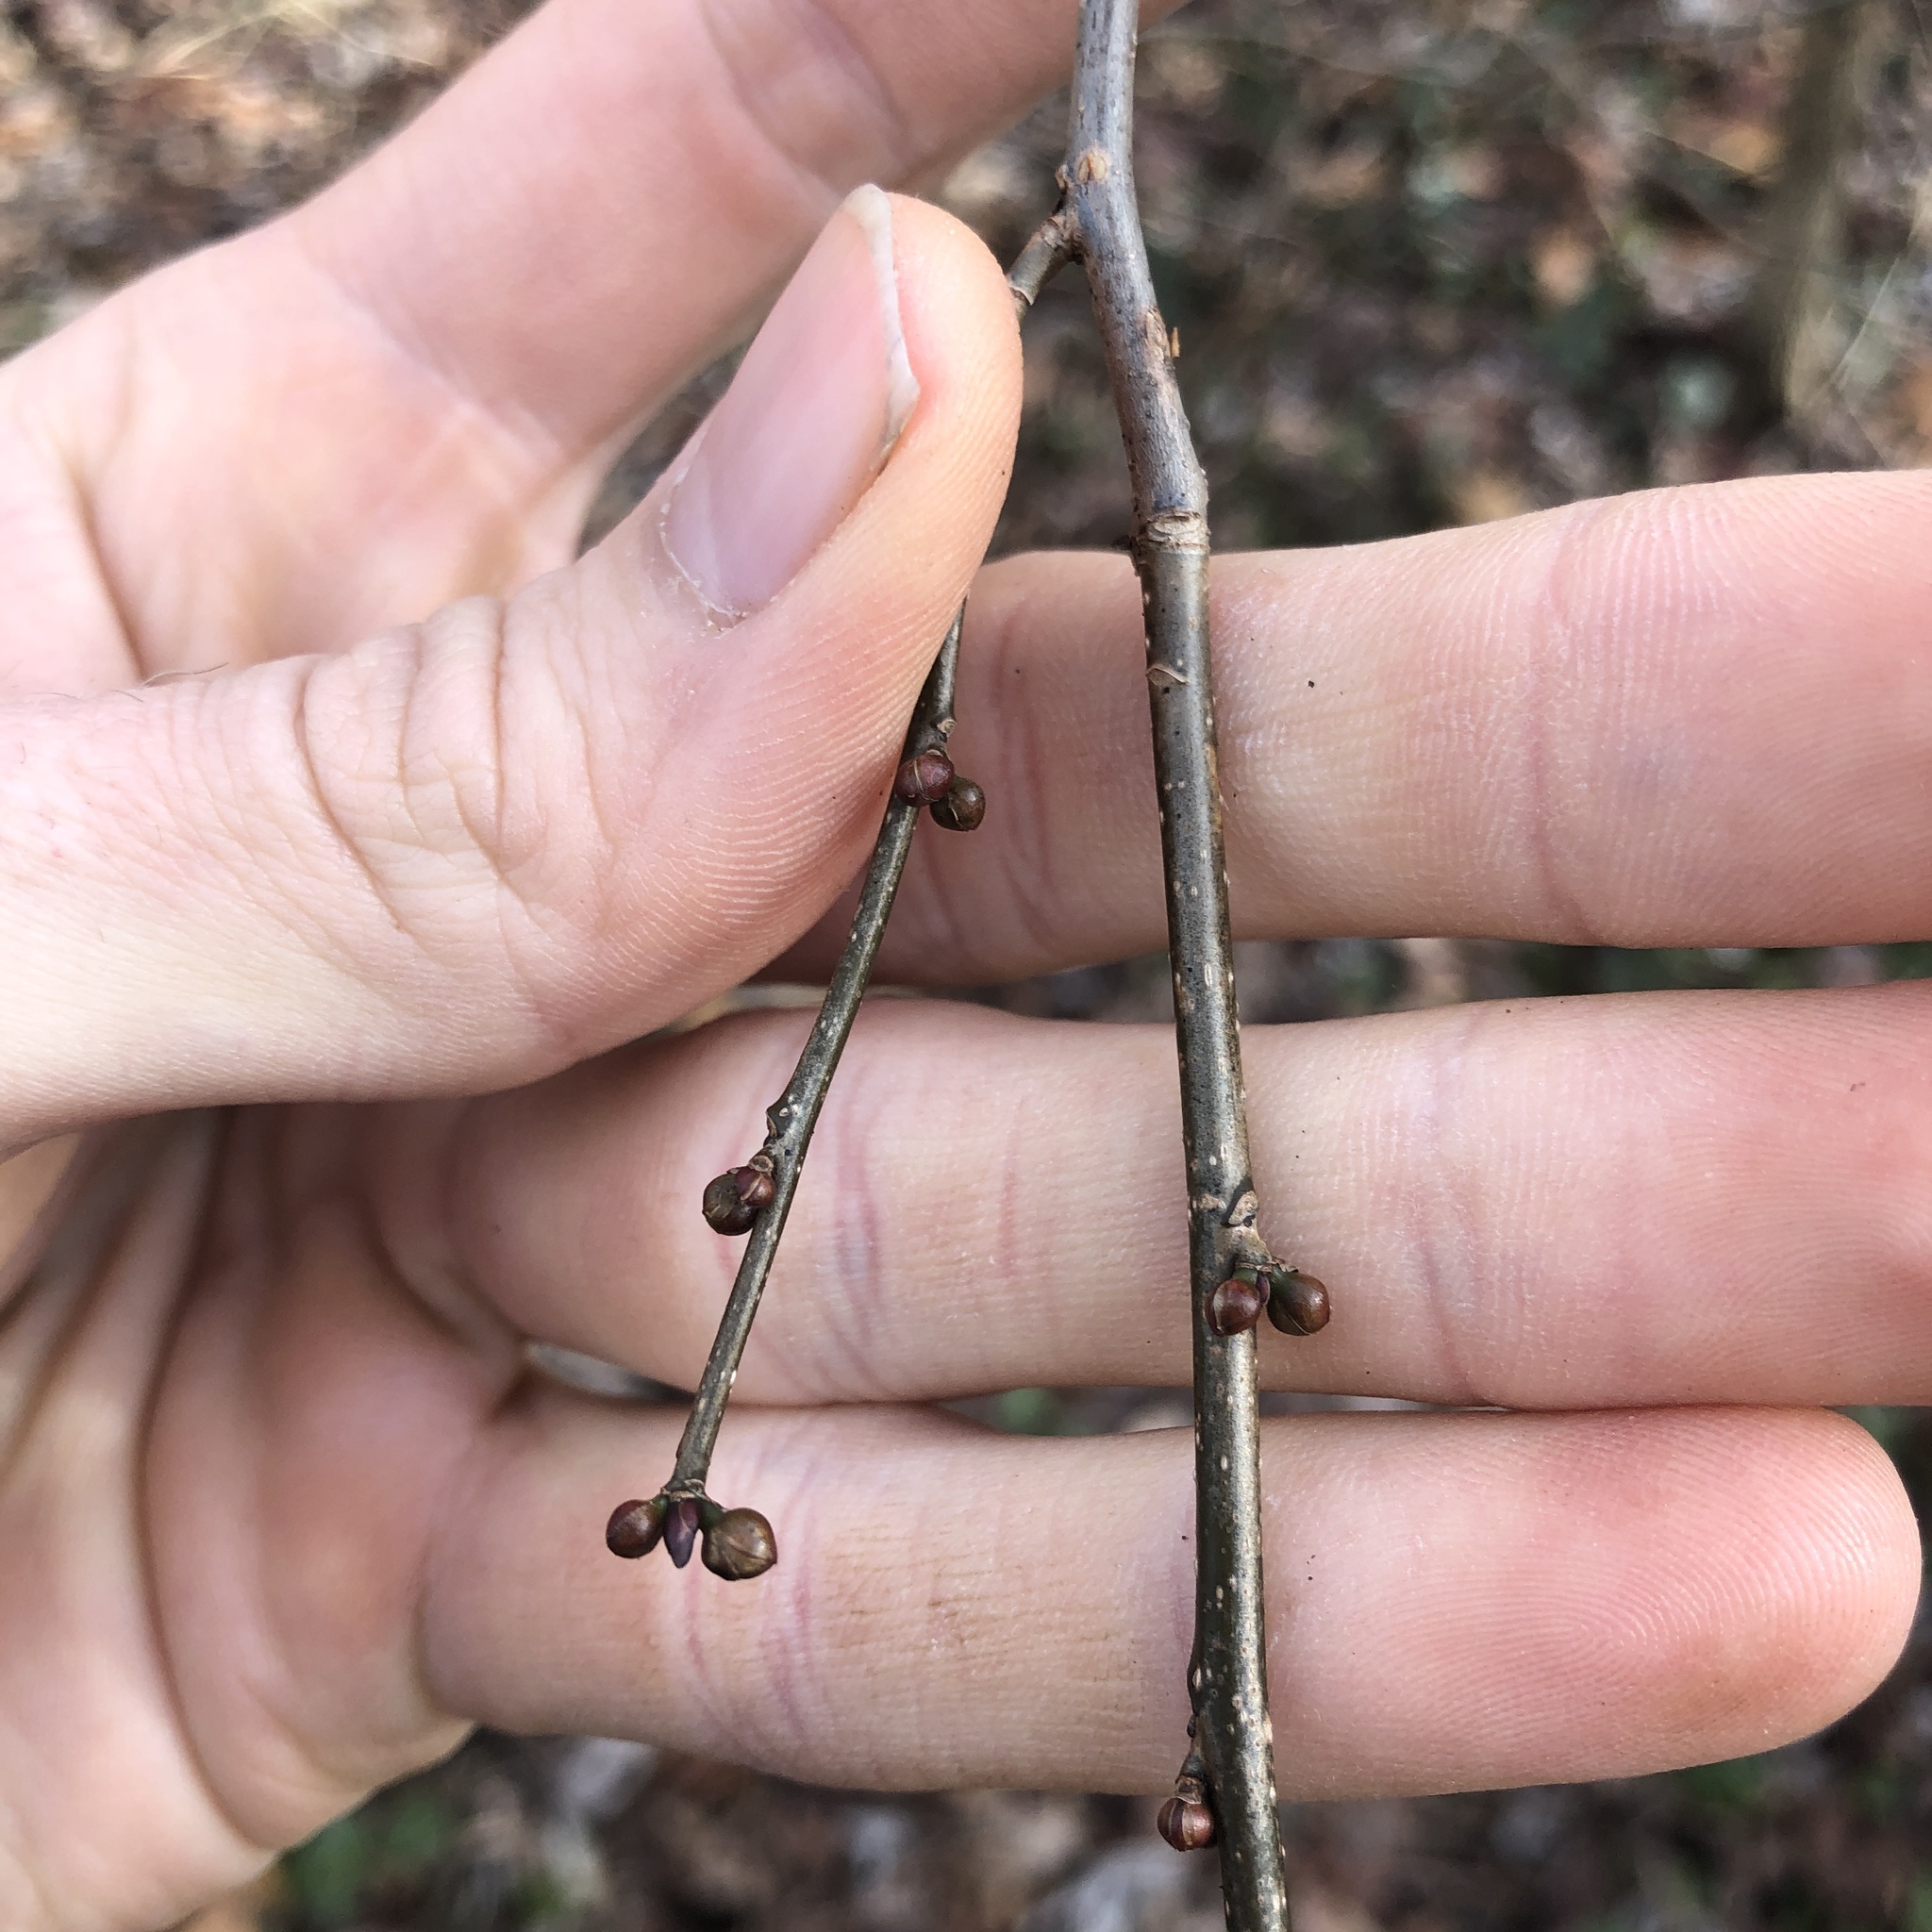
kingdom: Plantae
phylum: Tracheophyta
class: Magnoliopsida
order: Laurales
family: Lauraceae
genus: Lindera
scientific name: Lindera benzoin
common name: Spicebush
